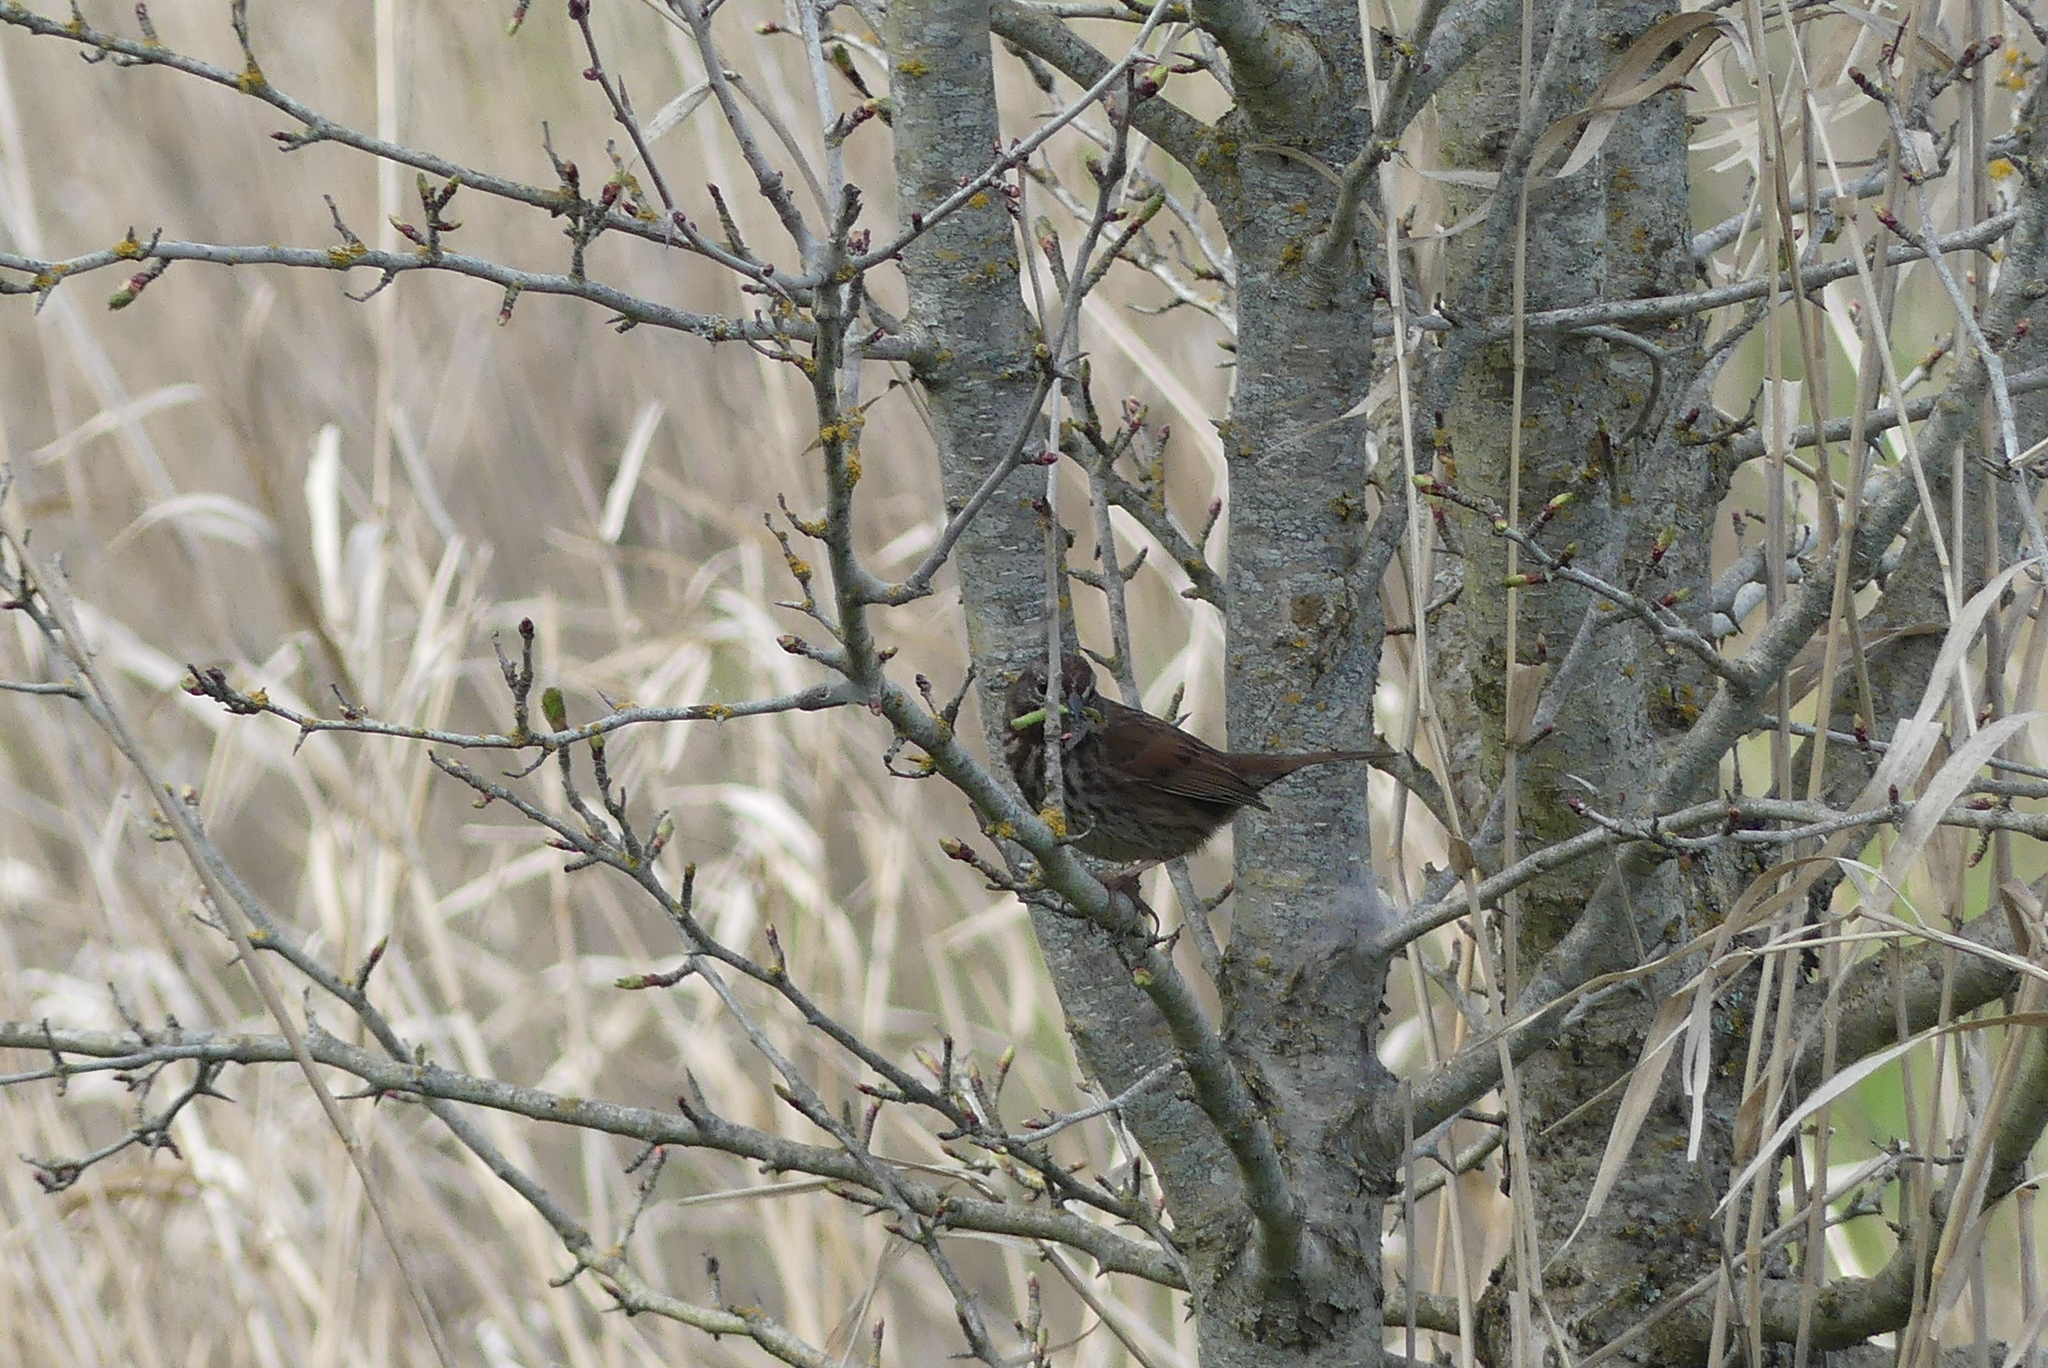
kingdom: Animalia
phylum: Chordata
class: Aves
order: Passeriformes
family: Passerellidae
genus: Melospiza
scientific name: Melospiza melodia
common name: Song sparrow
